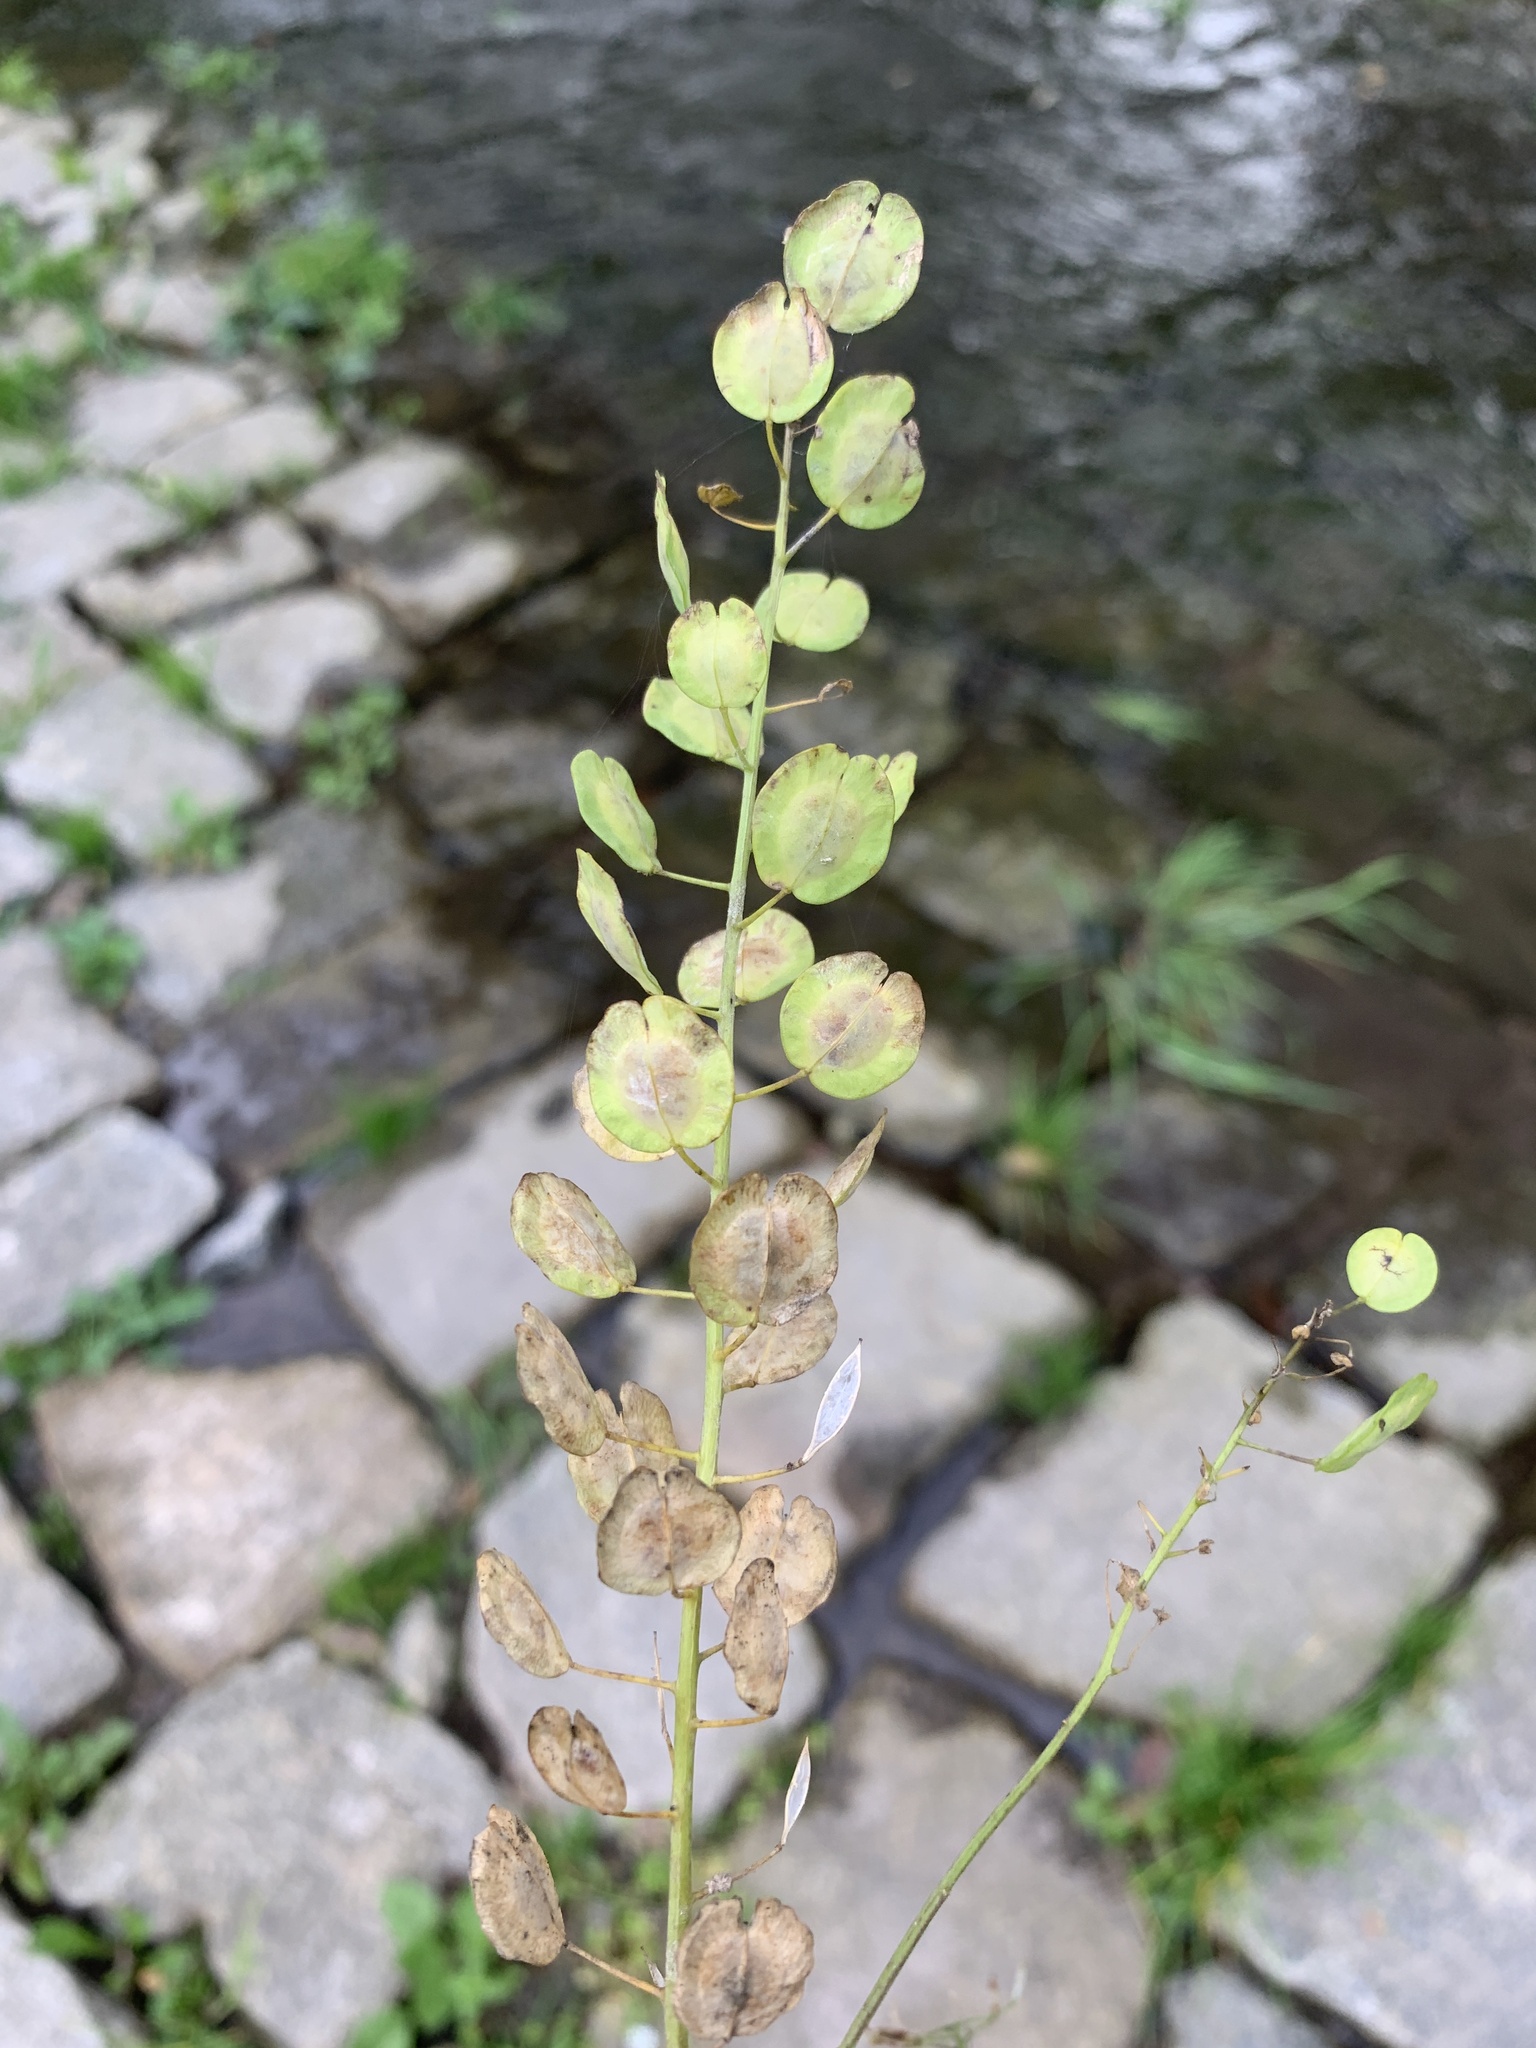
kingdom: Plantae
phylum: Tracheophyta
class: Magnoliopsida
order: Brassicales
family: Brassicaceae
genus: Thlaspi
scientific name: Thlaspi arvense
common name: Field pennycress
